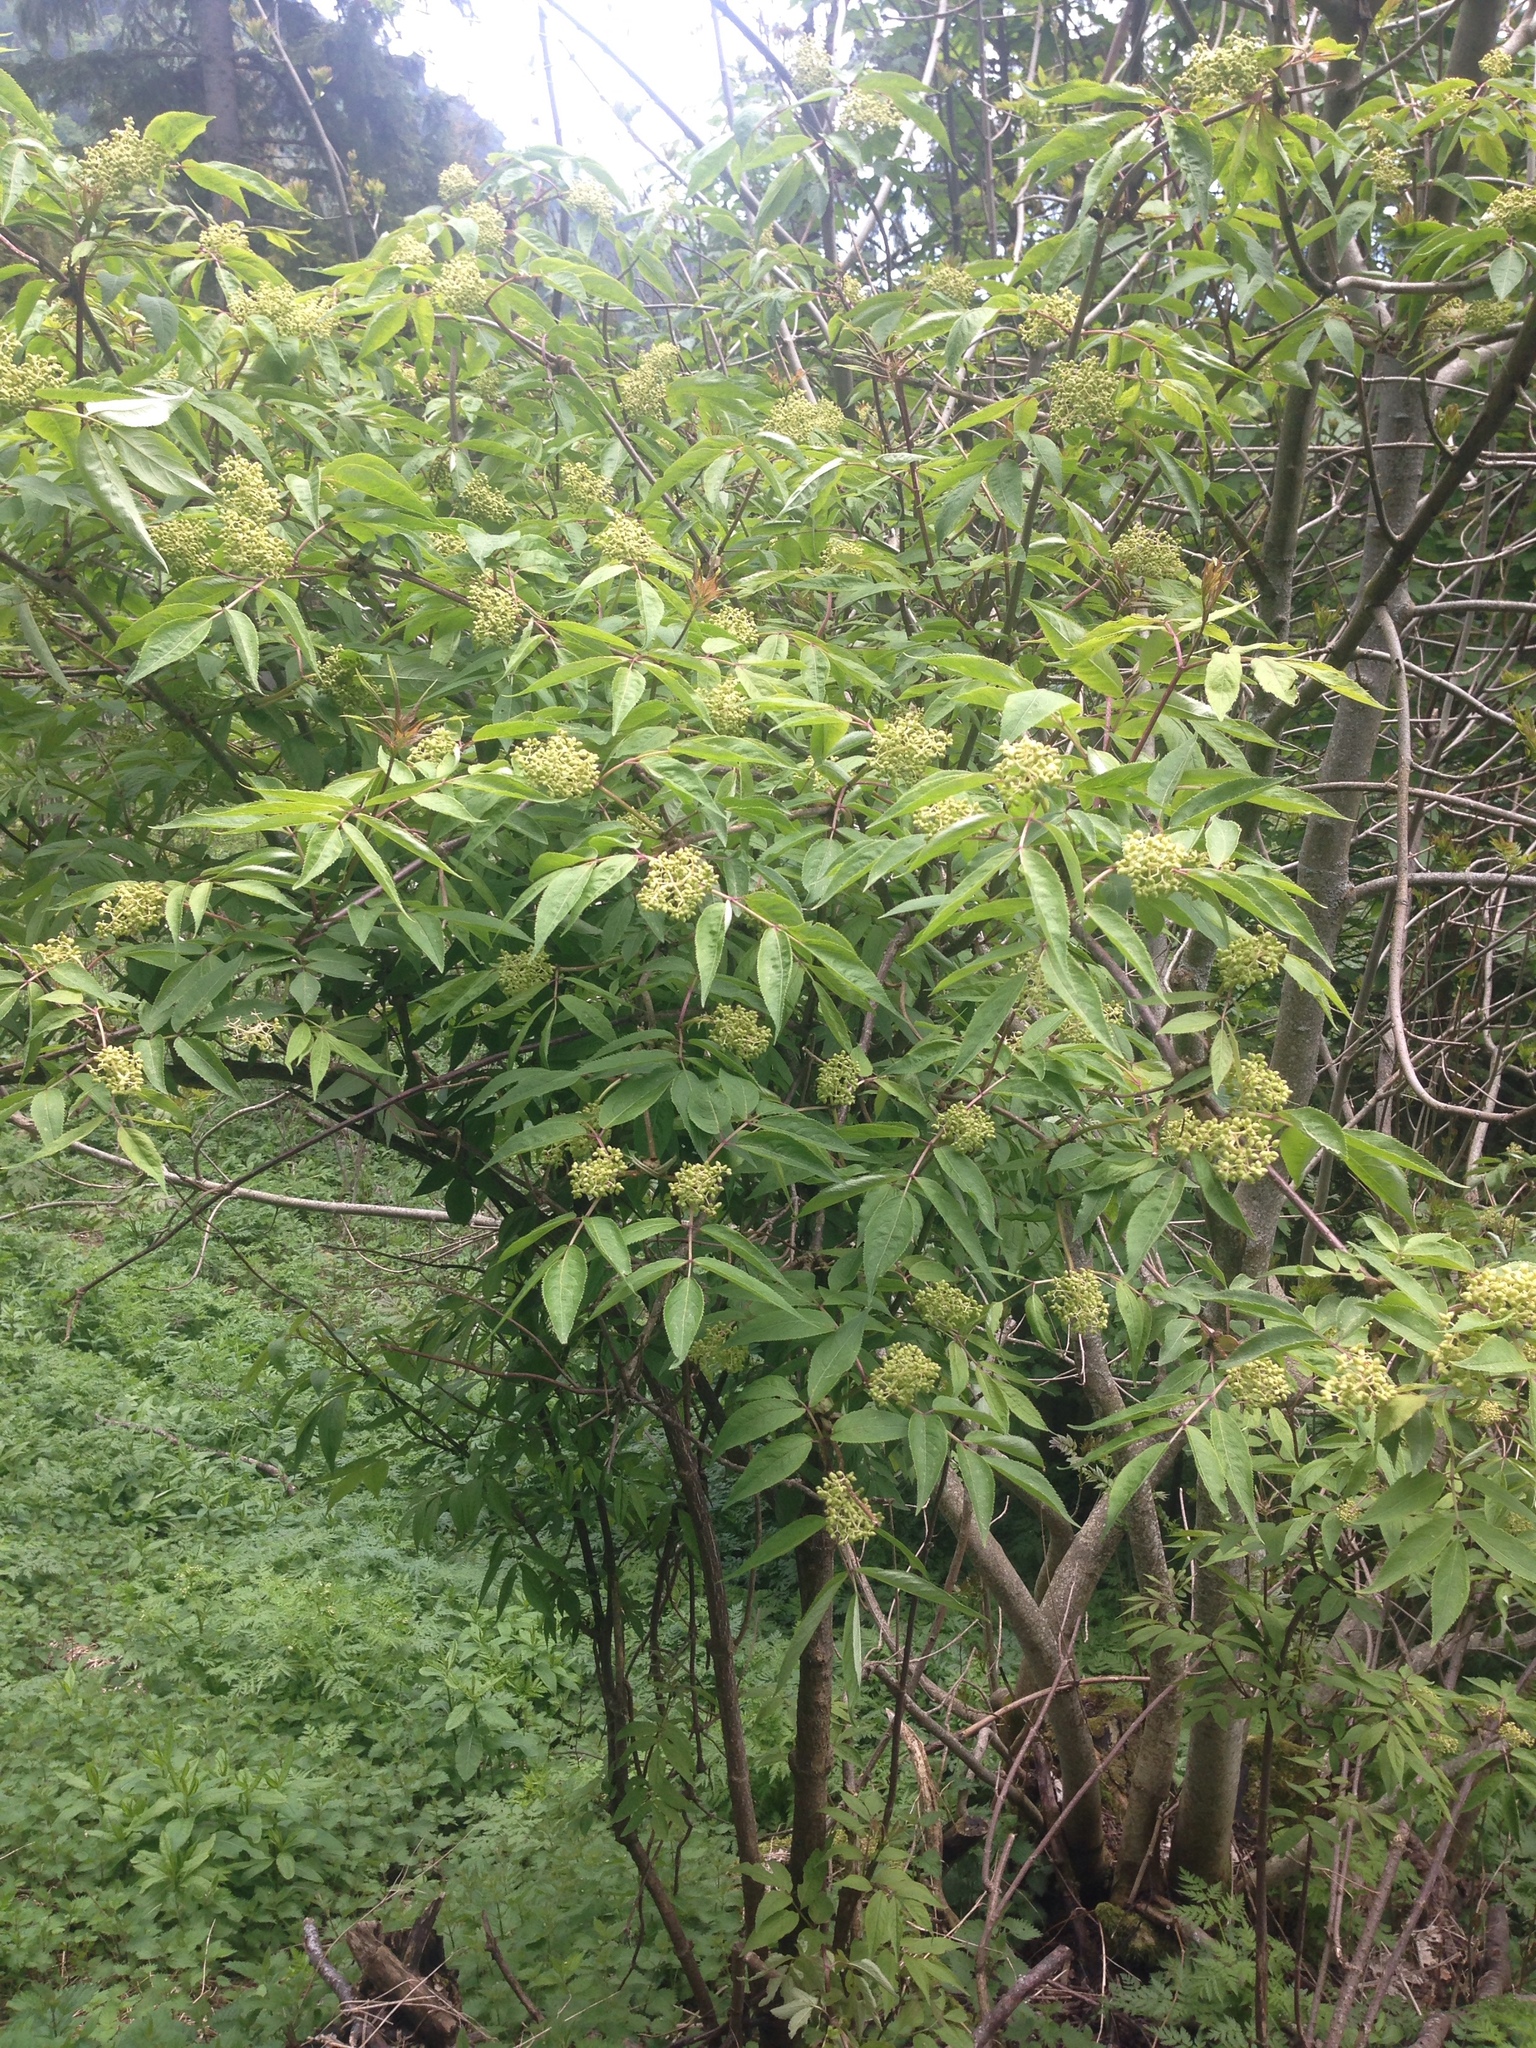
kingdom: Plantae
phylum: Tracheophyta
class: Magnoliopsida
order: Dipsacales
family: Viburnaceae
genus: Sambucus
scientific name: Sambucus racemosa
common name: Red-berried elder
